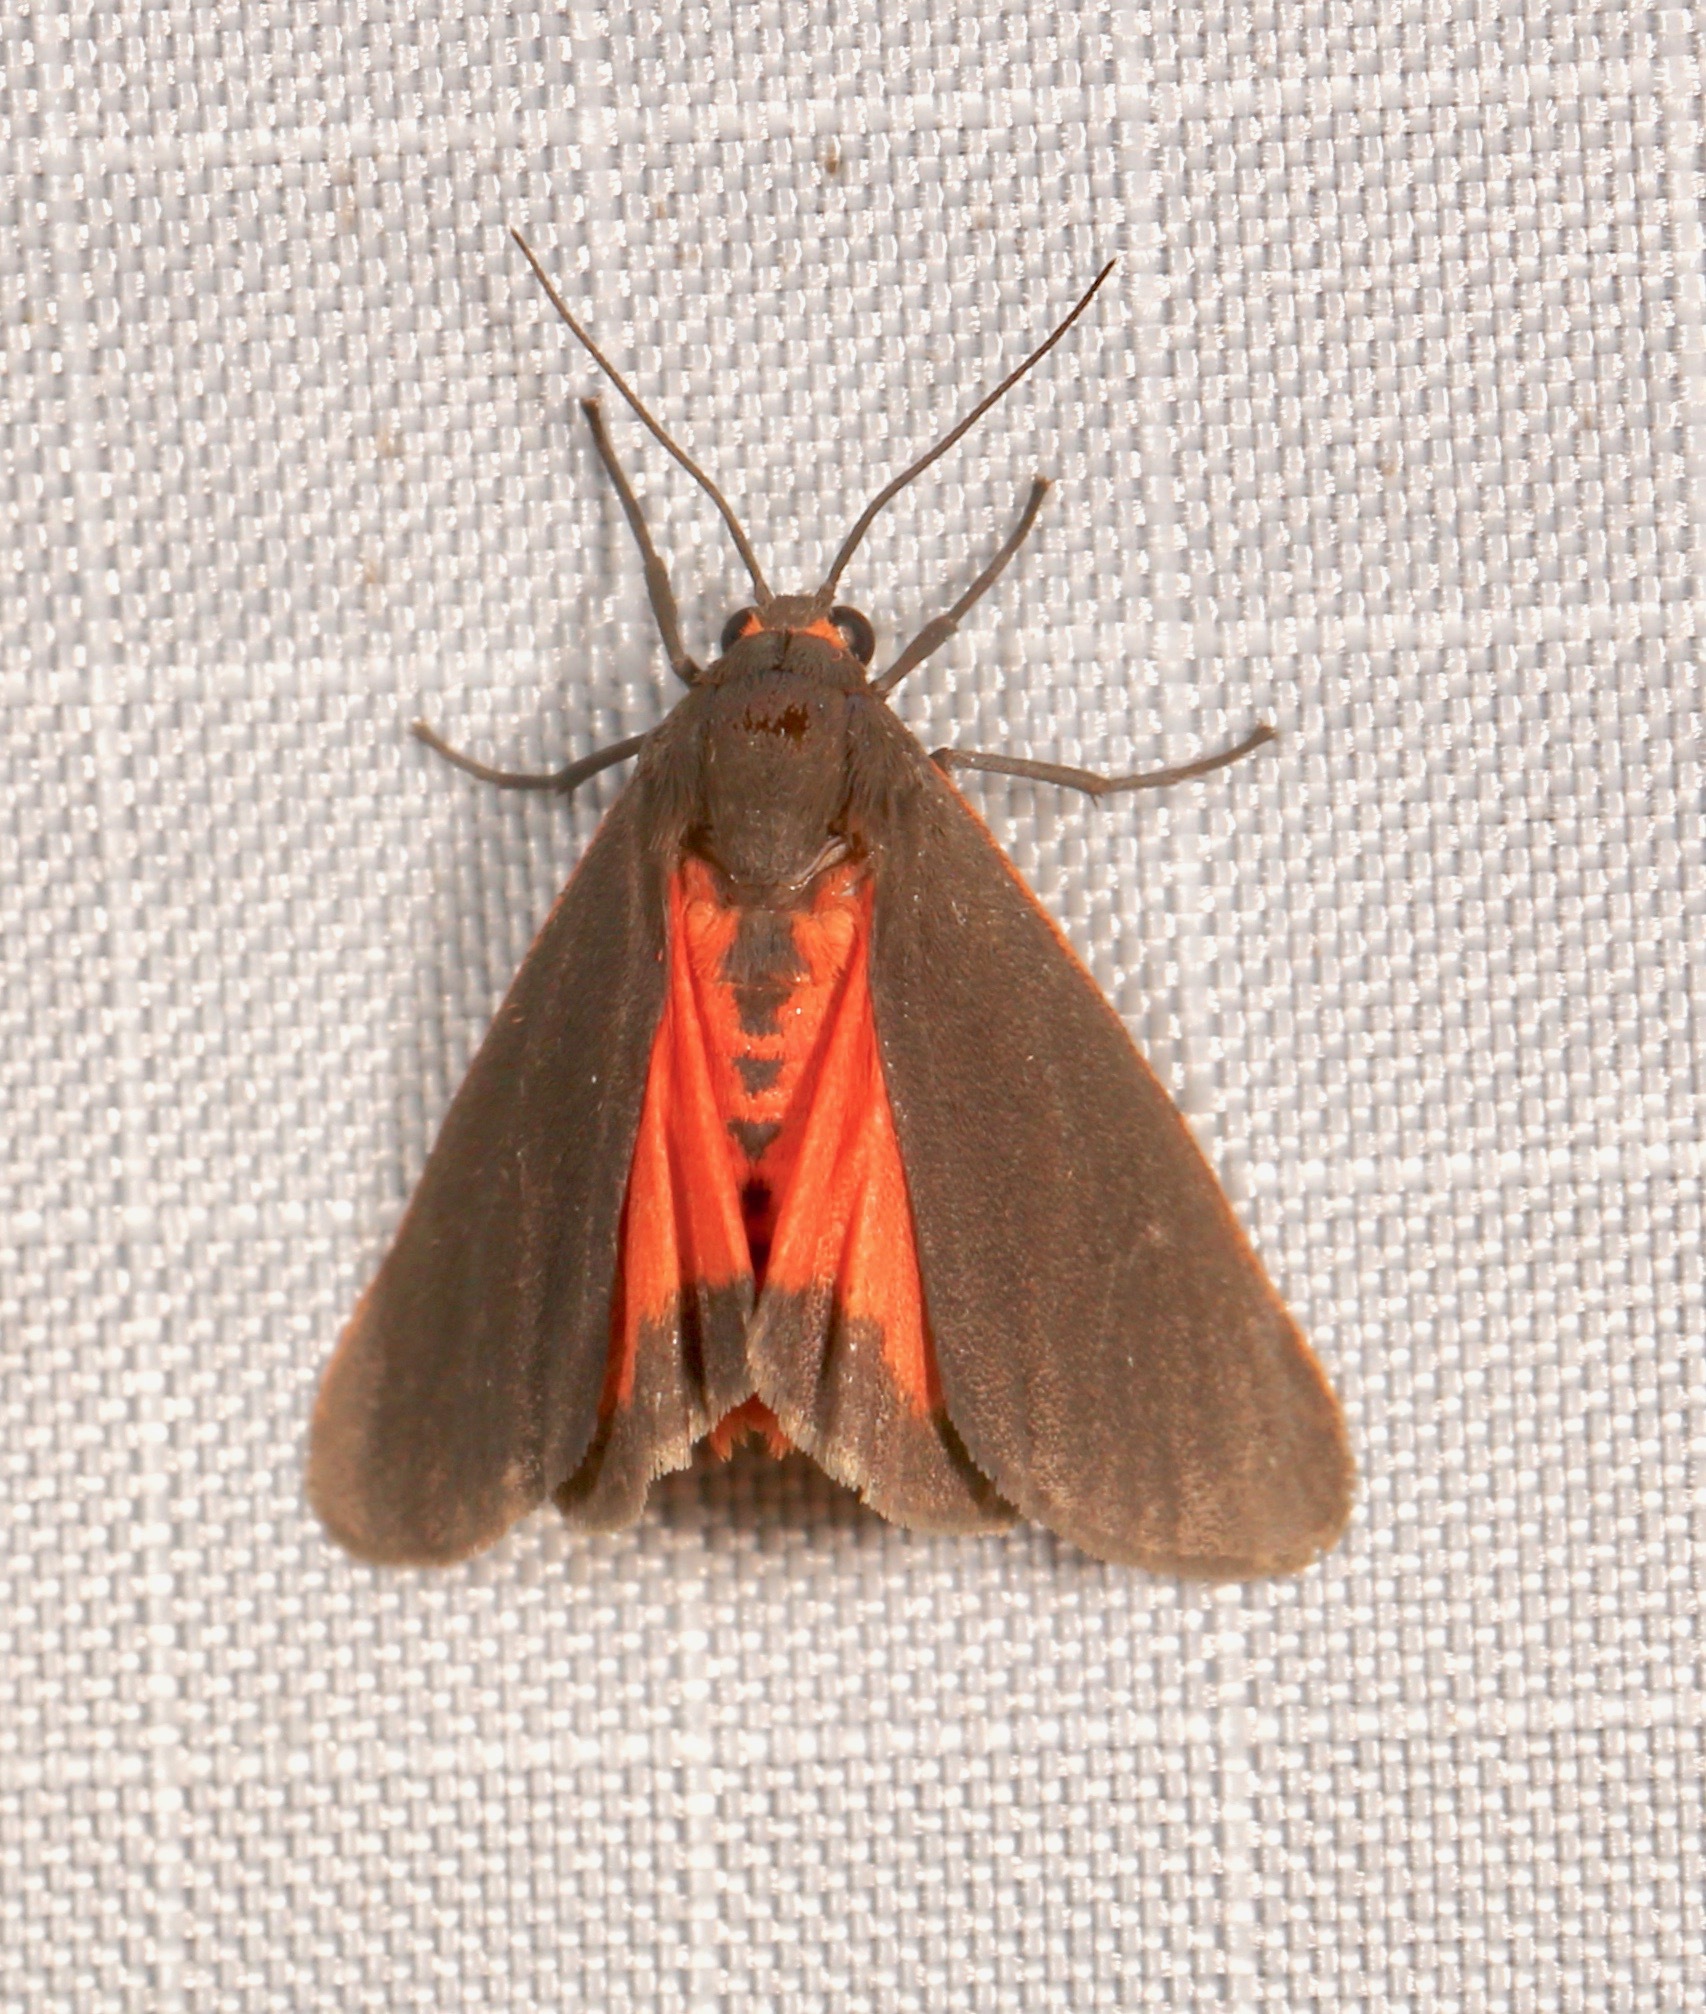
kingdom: Animalia
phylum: Arthropoda
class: Insecta
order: Lepidoptera
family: Erebidae
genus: Virbia
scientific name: Virbia laeta
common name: Joyful holomelina moth
